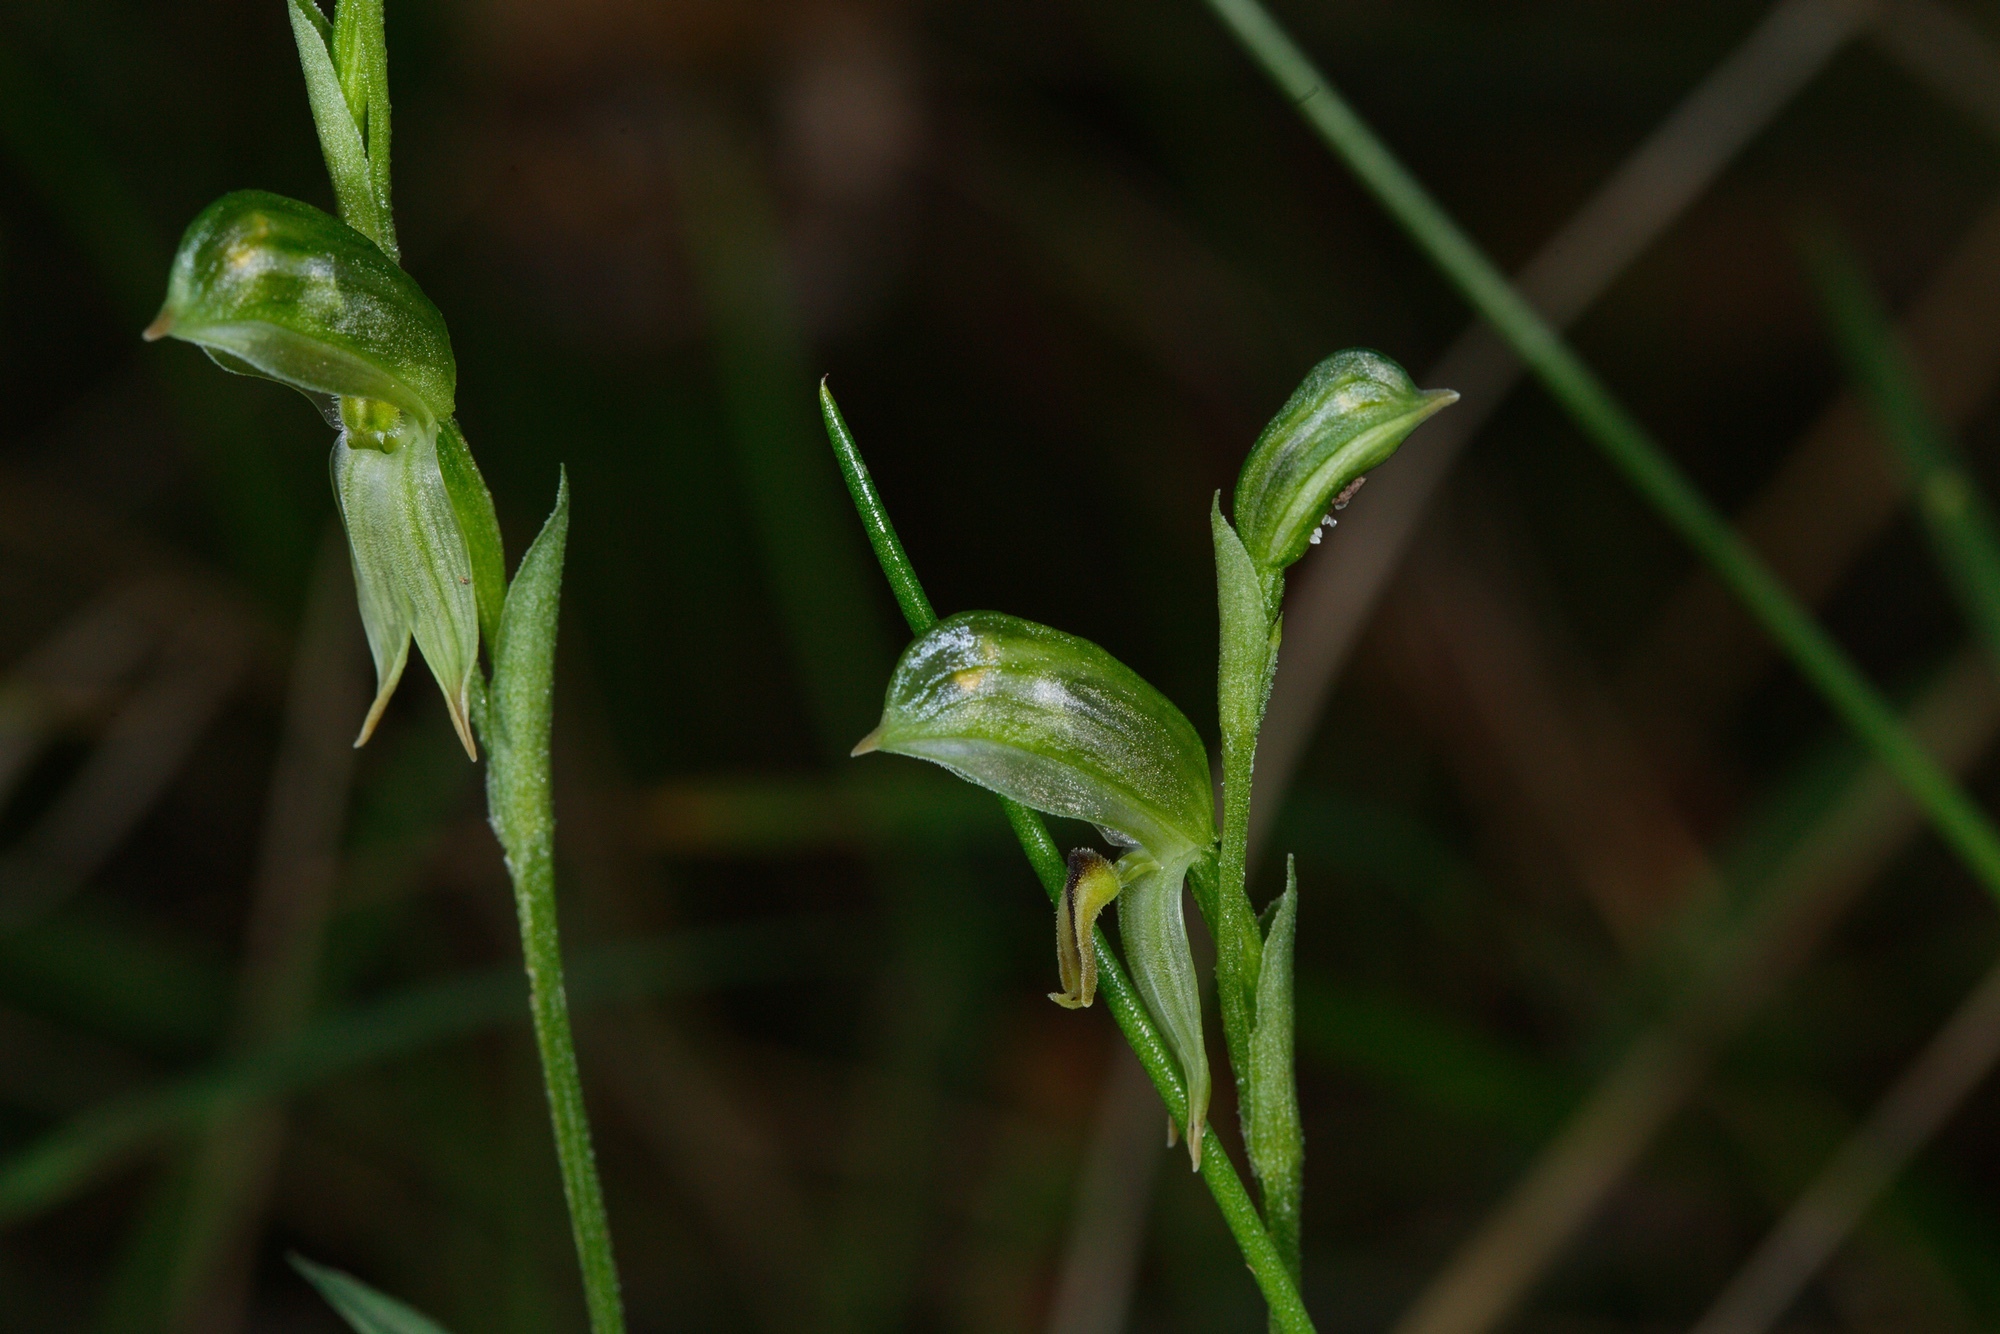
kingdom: Plantae
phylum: Tracheophyta
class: Liliopsida
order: Asparagales
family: Orchidaceae
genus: Pterostylis
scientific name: Pterostylis melagramma
